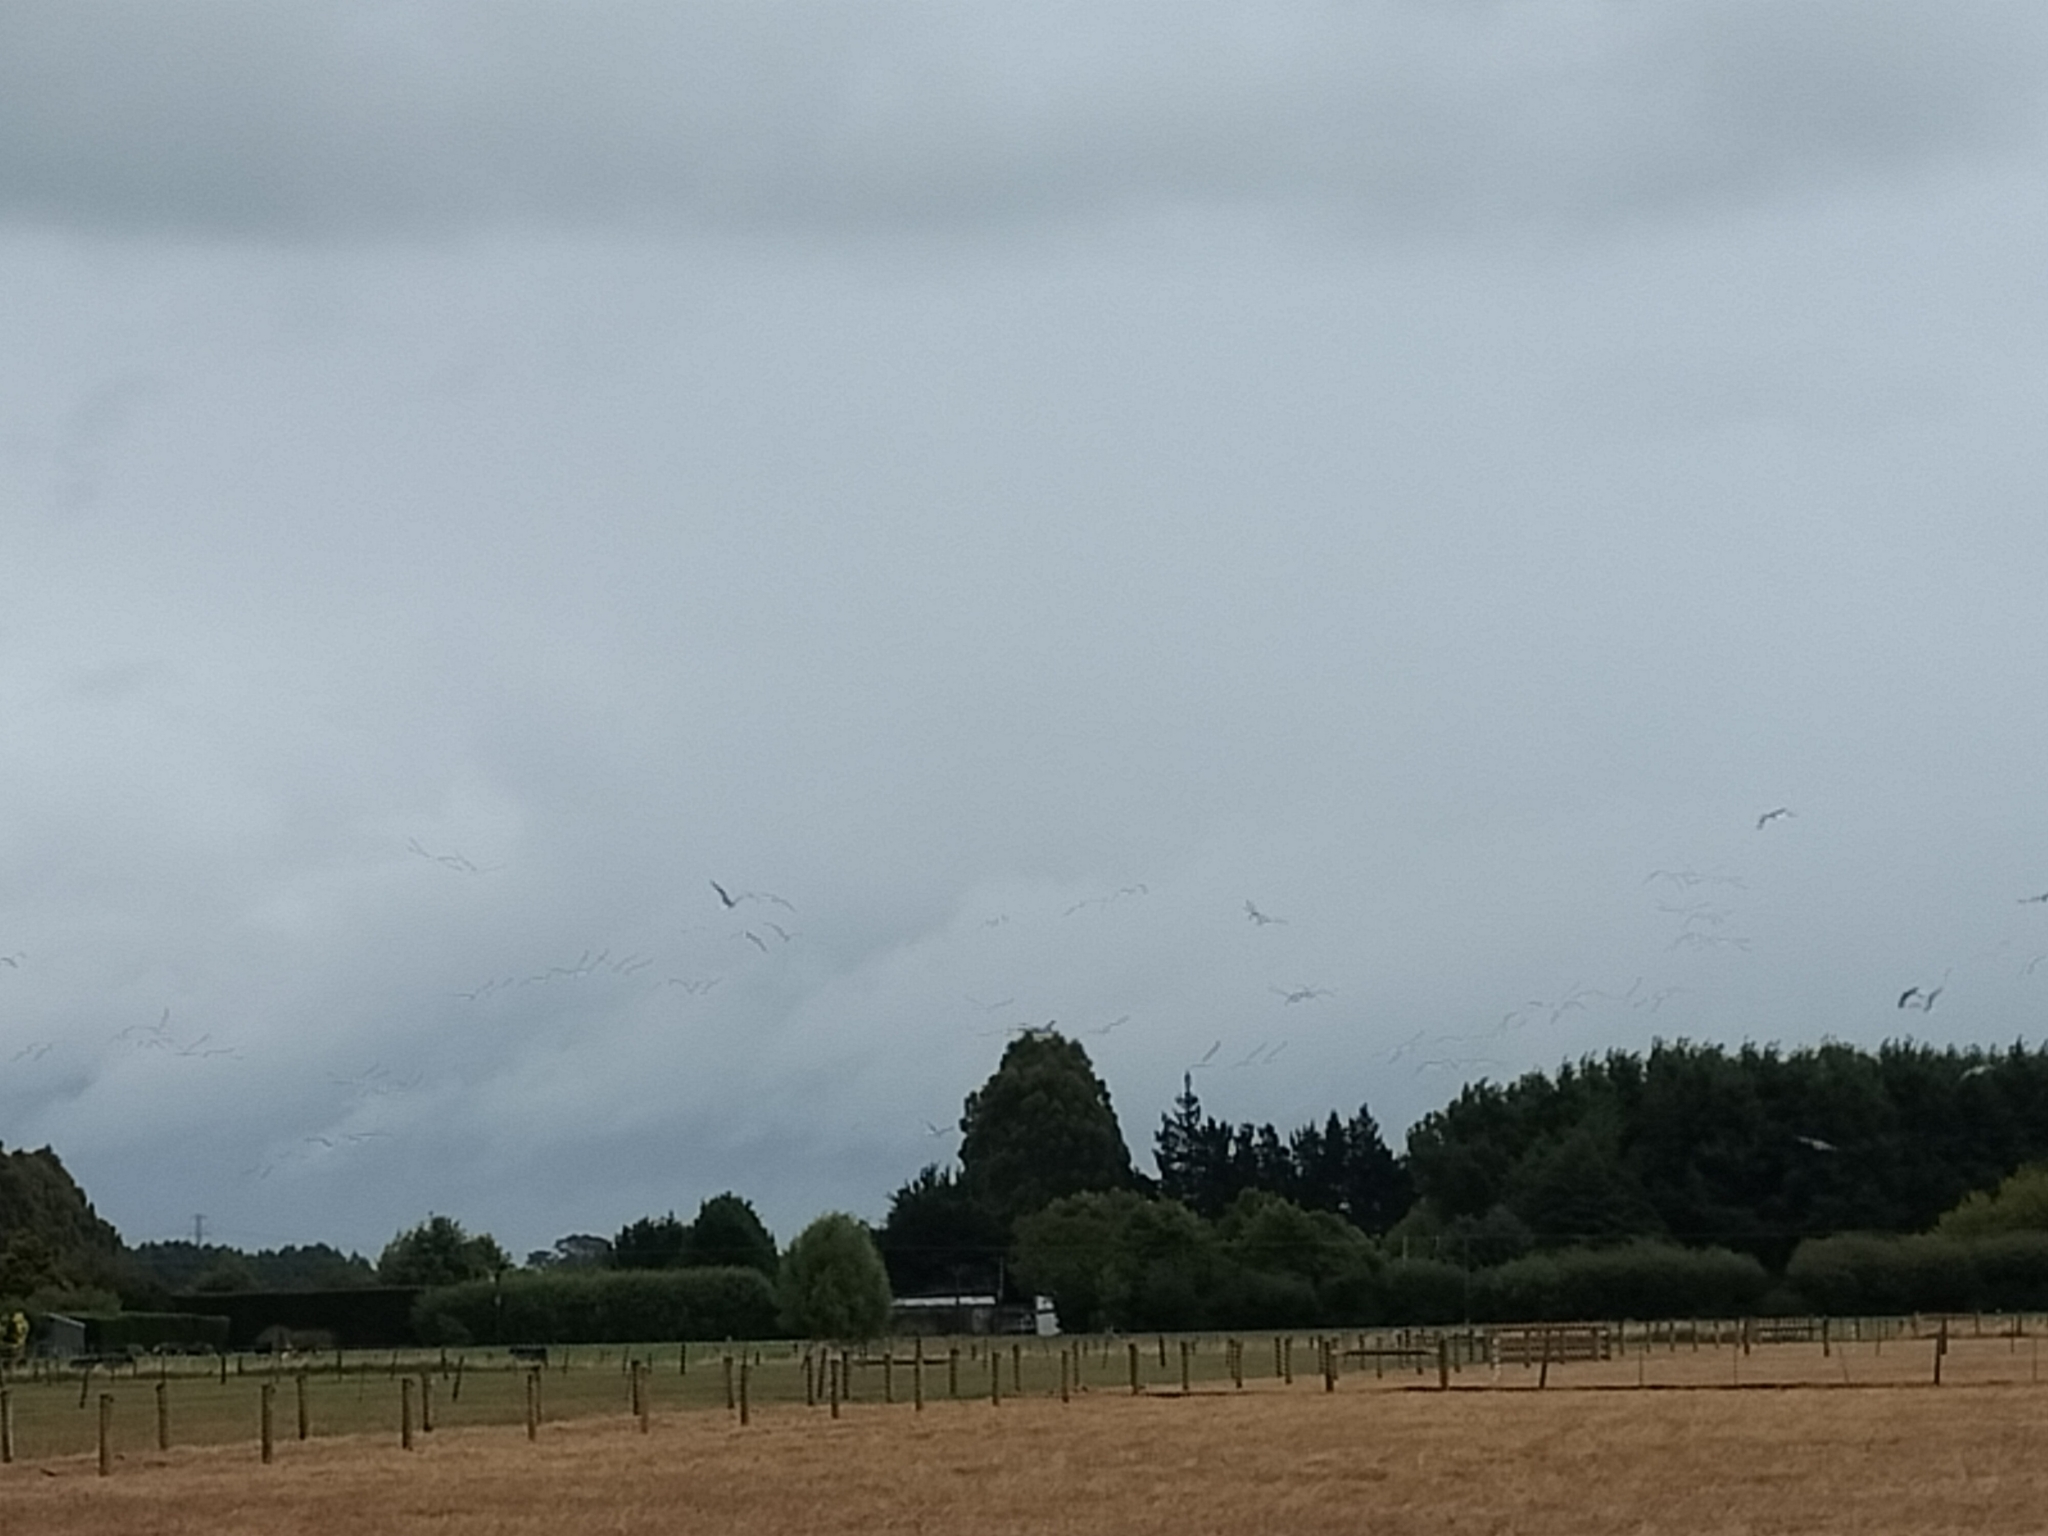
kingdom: Animalia
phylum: Chordata
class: Aves
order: Charadriiformes
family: Laridae
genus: Larus
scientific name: Larus dominicanus
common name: Kelp gull
